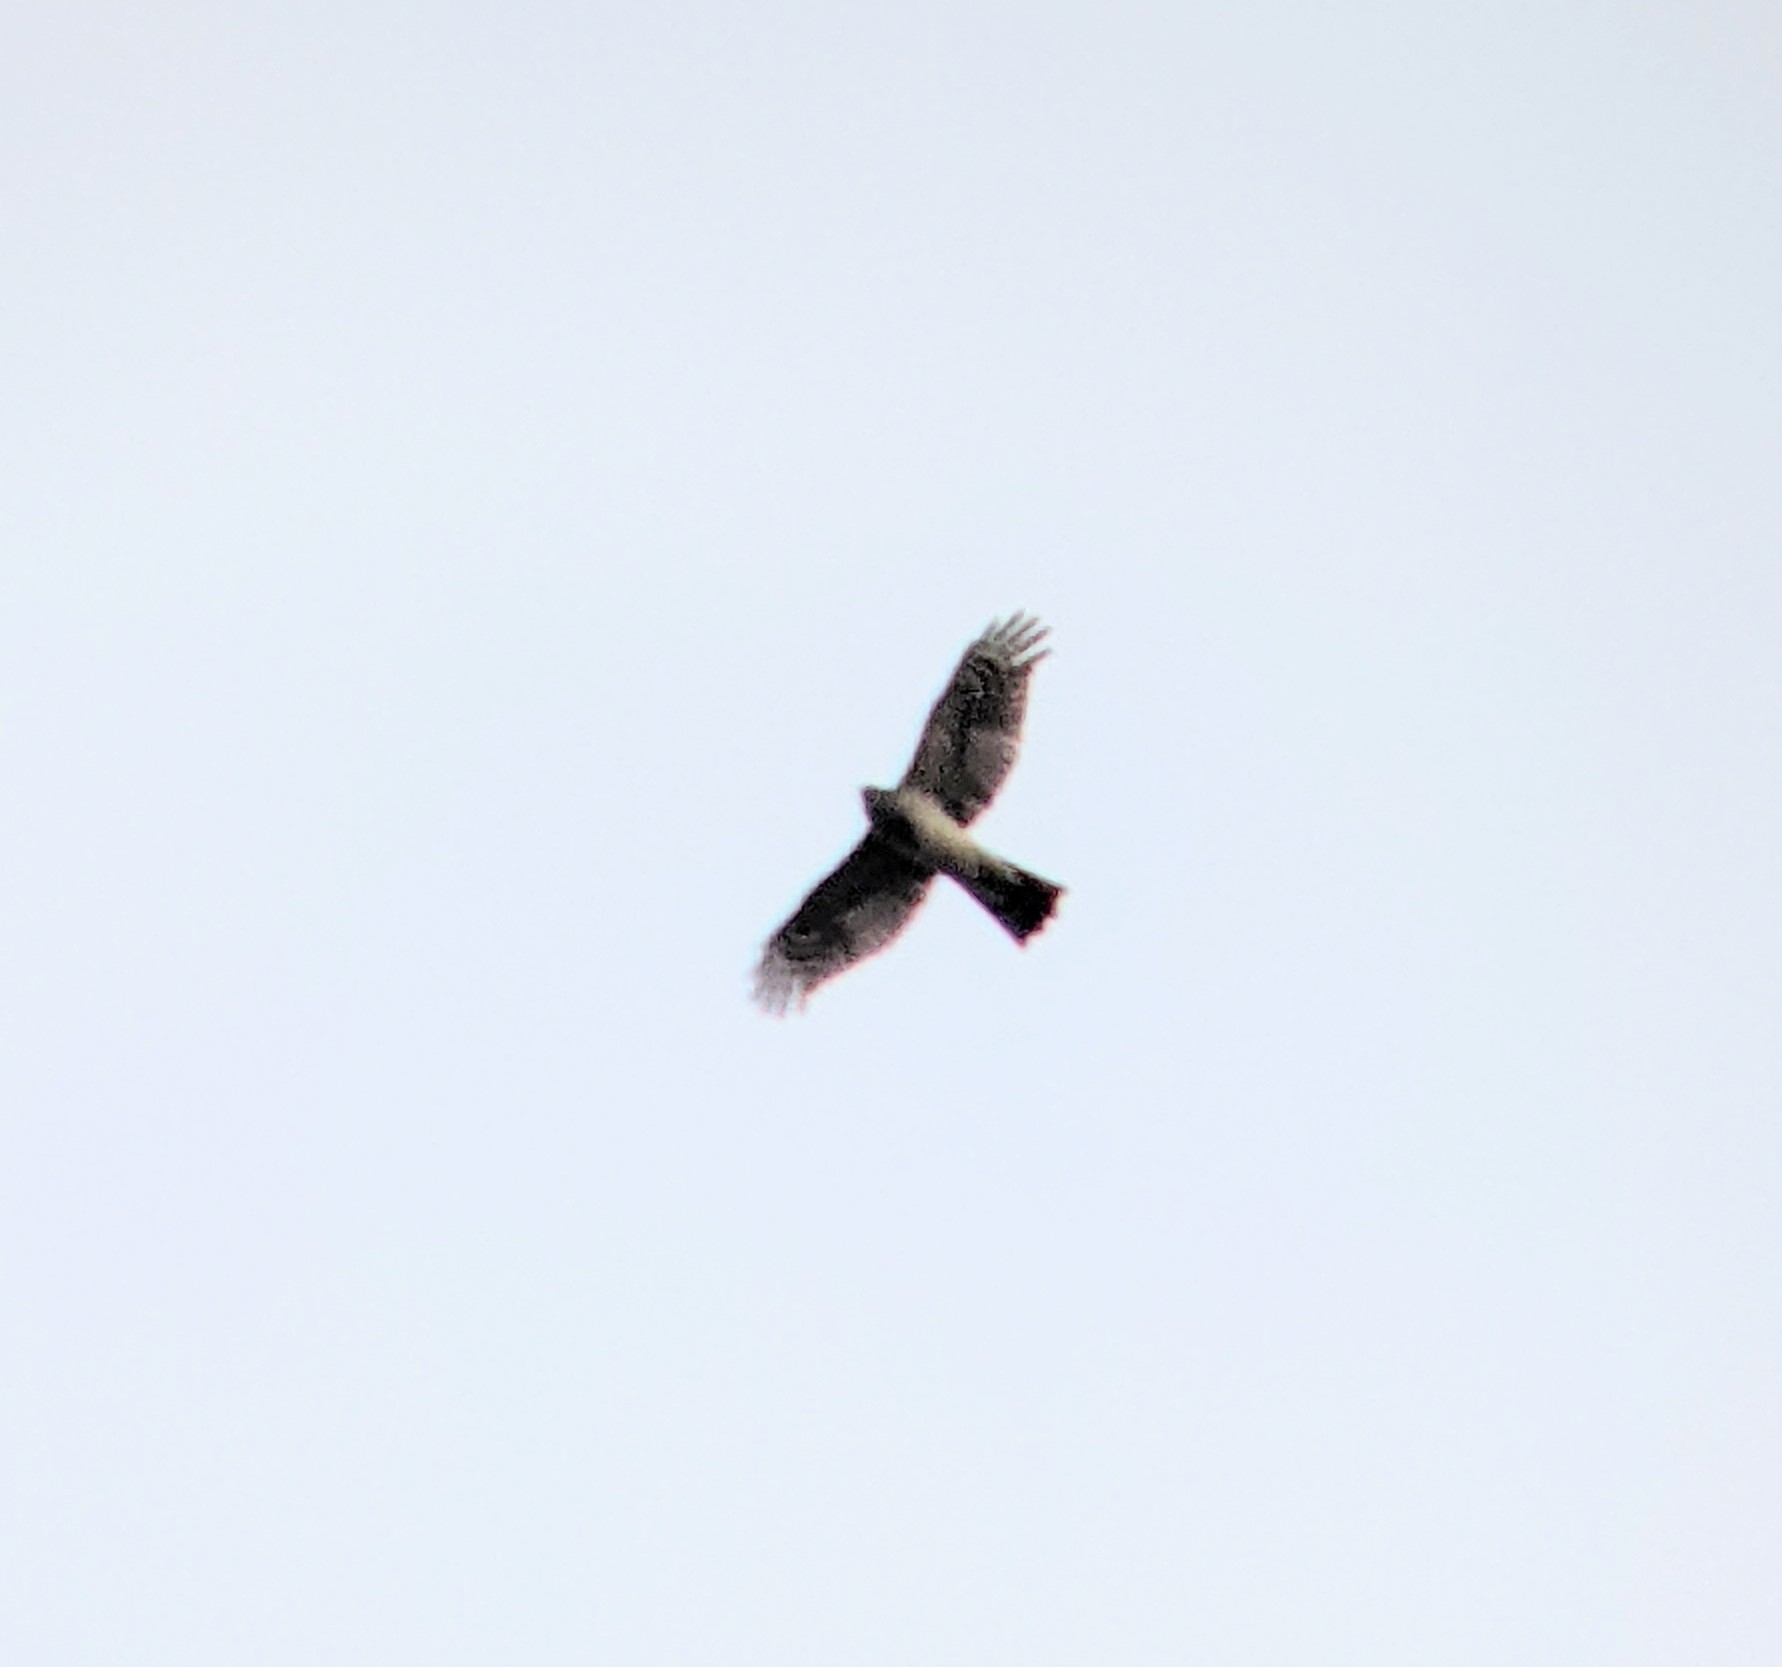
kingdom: Animalia
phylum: Chordata
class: Aves
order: Accipitriformes
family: Accipitridae
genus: Accipiter
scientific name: Accipiter nisus
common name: Eurasian sparrowhawk
